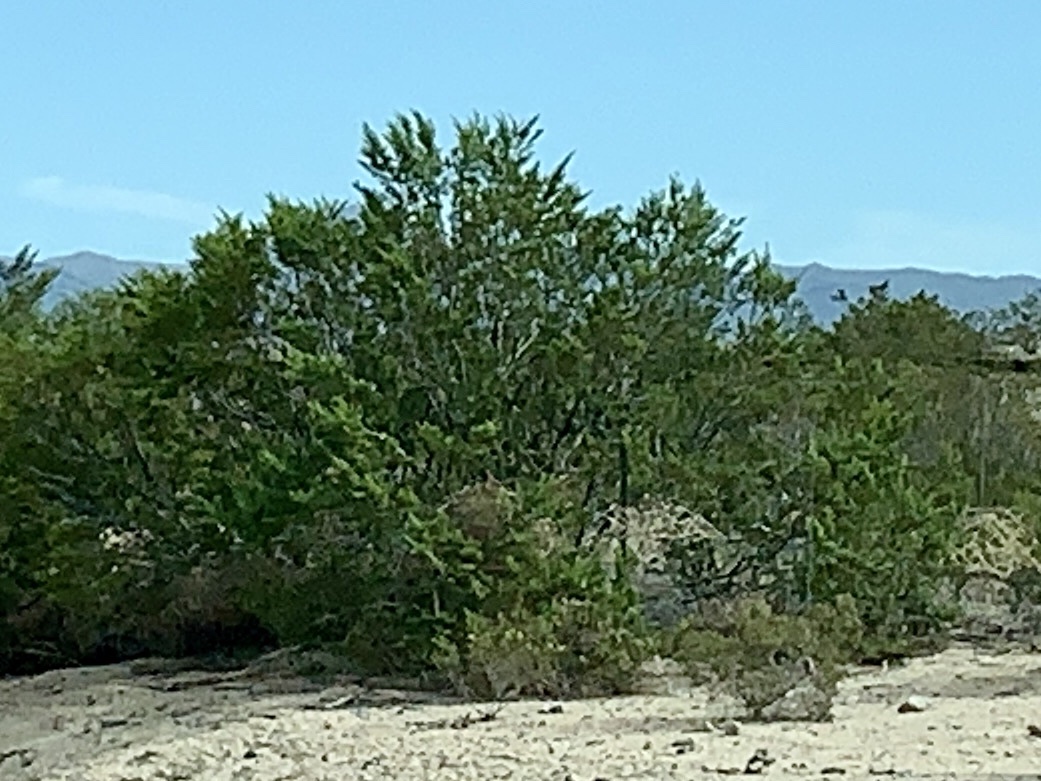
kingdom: Plantae
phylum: Tracheophyta
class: Magnoliopsida
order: Zygophyllales
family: Zygophyllaceae
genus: Larrea
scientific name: Larrea tridentata
